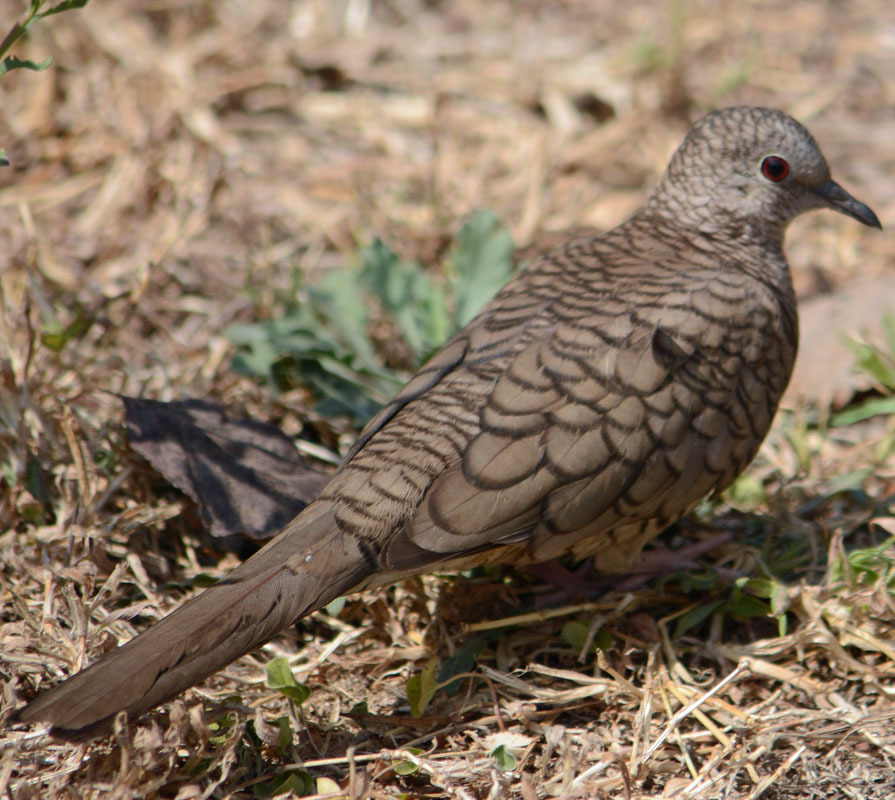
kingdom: Animalia
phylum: Chordata
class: Aves
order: Columbiformes
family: Columbidae
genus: Columbina
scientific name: Columbina inca
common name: Inca dove
